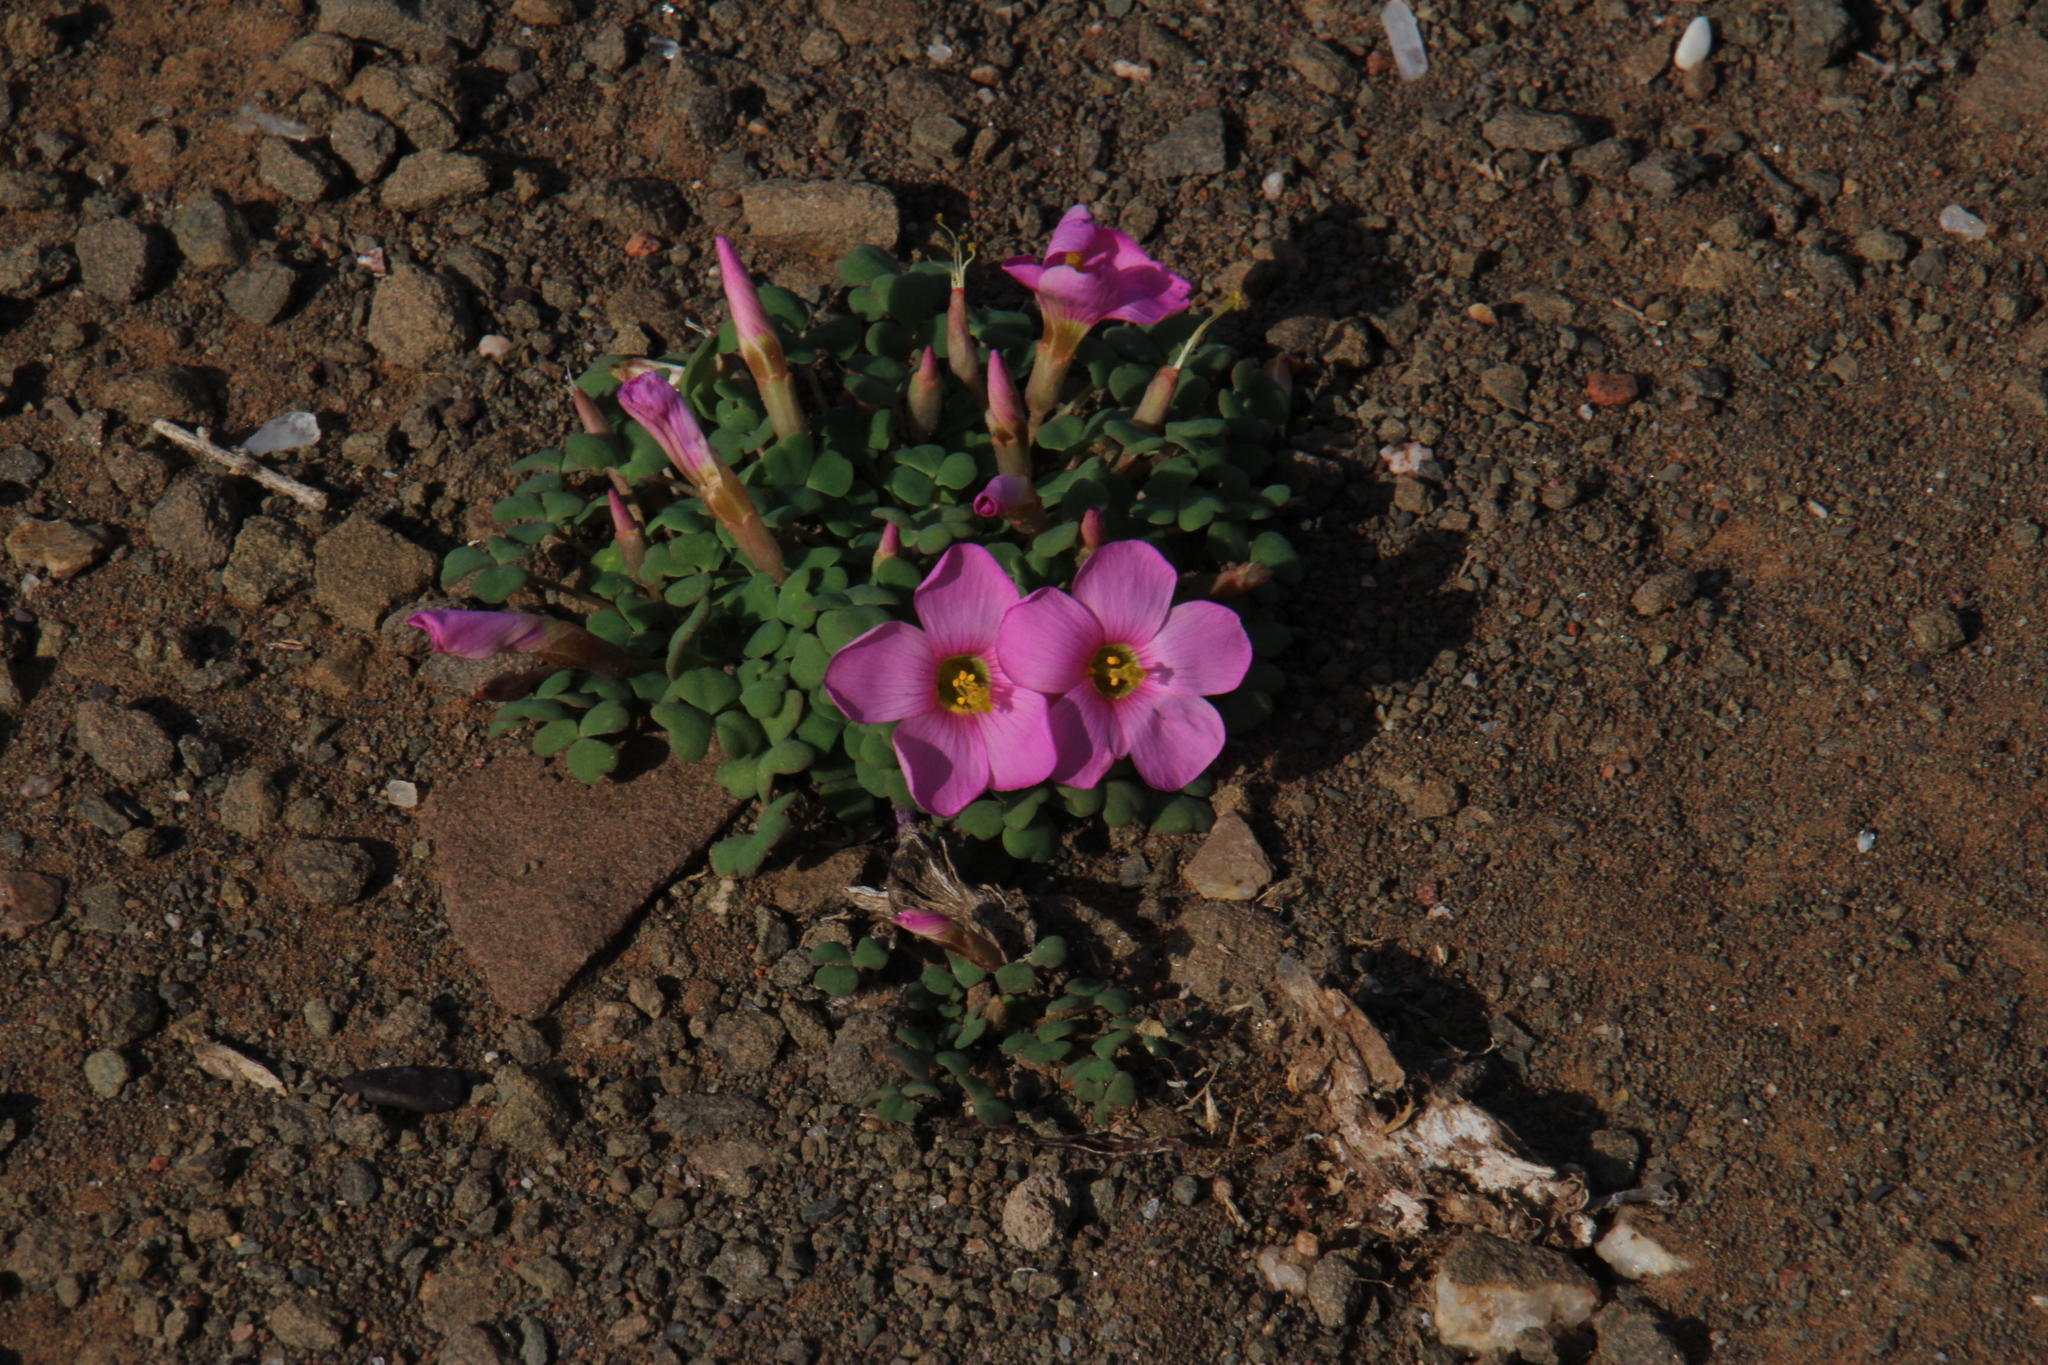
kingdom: Plantae
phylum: Tracheophyta
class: Magnoliopsida
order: Oxalidales
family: Oxalidaceae
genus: Oxalis
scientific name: Oxalis fergusoniae
